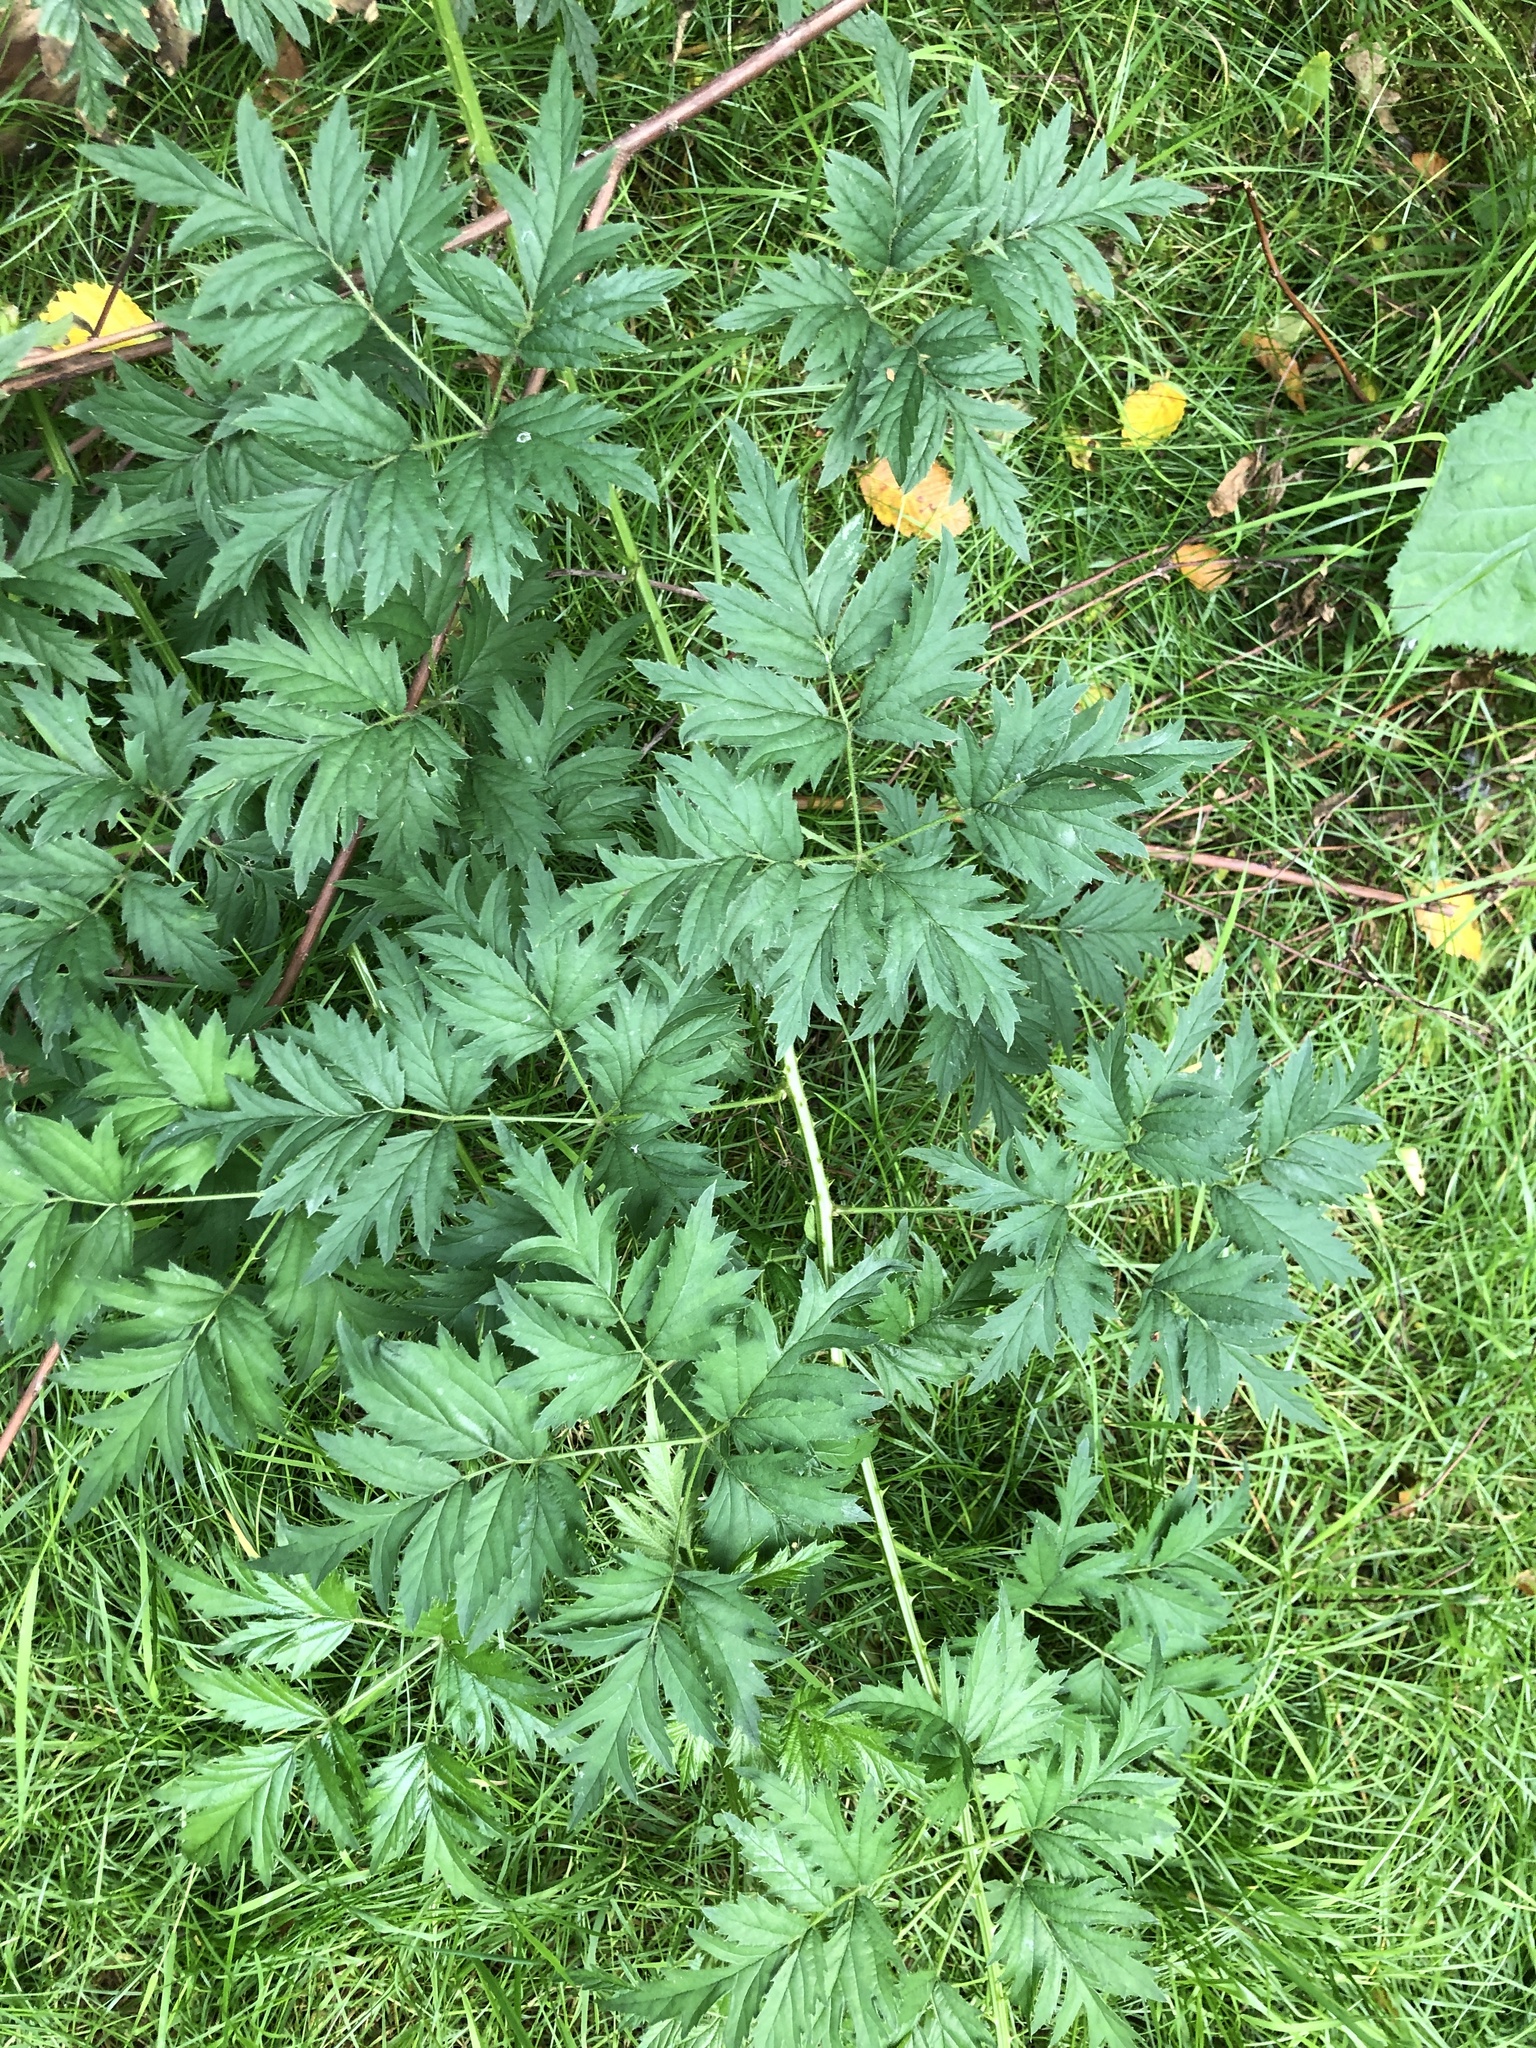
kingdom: Plantae
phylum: Tracheophyta
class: Magnoliopsida
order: Rosales
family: Rosaceae
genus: Rubus
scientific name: Rubus laciniatus
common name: Evergreen blackberry
